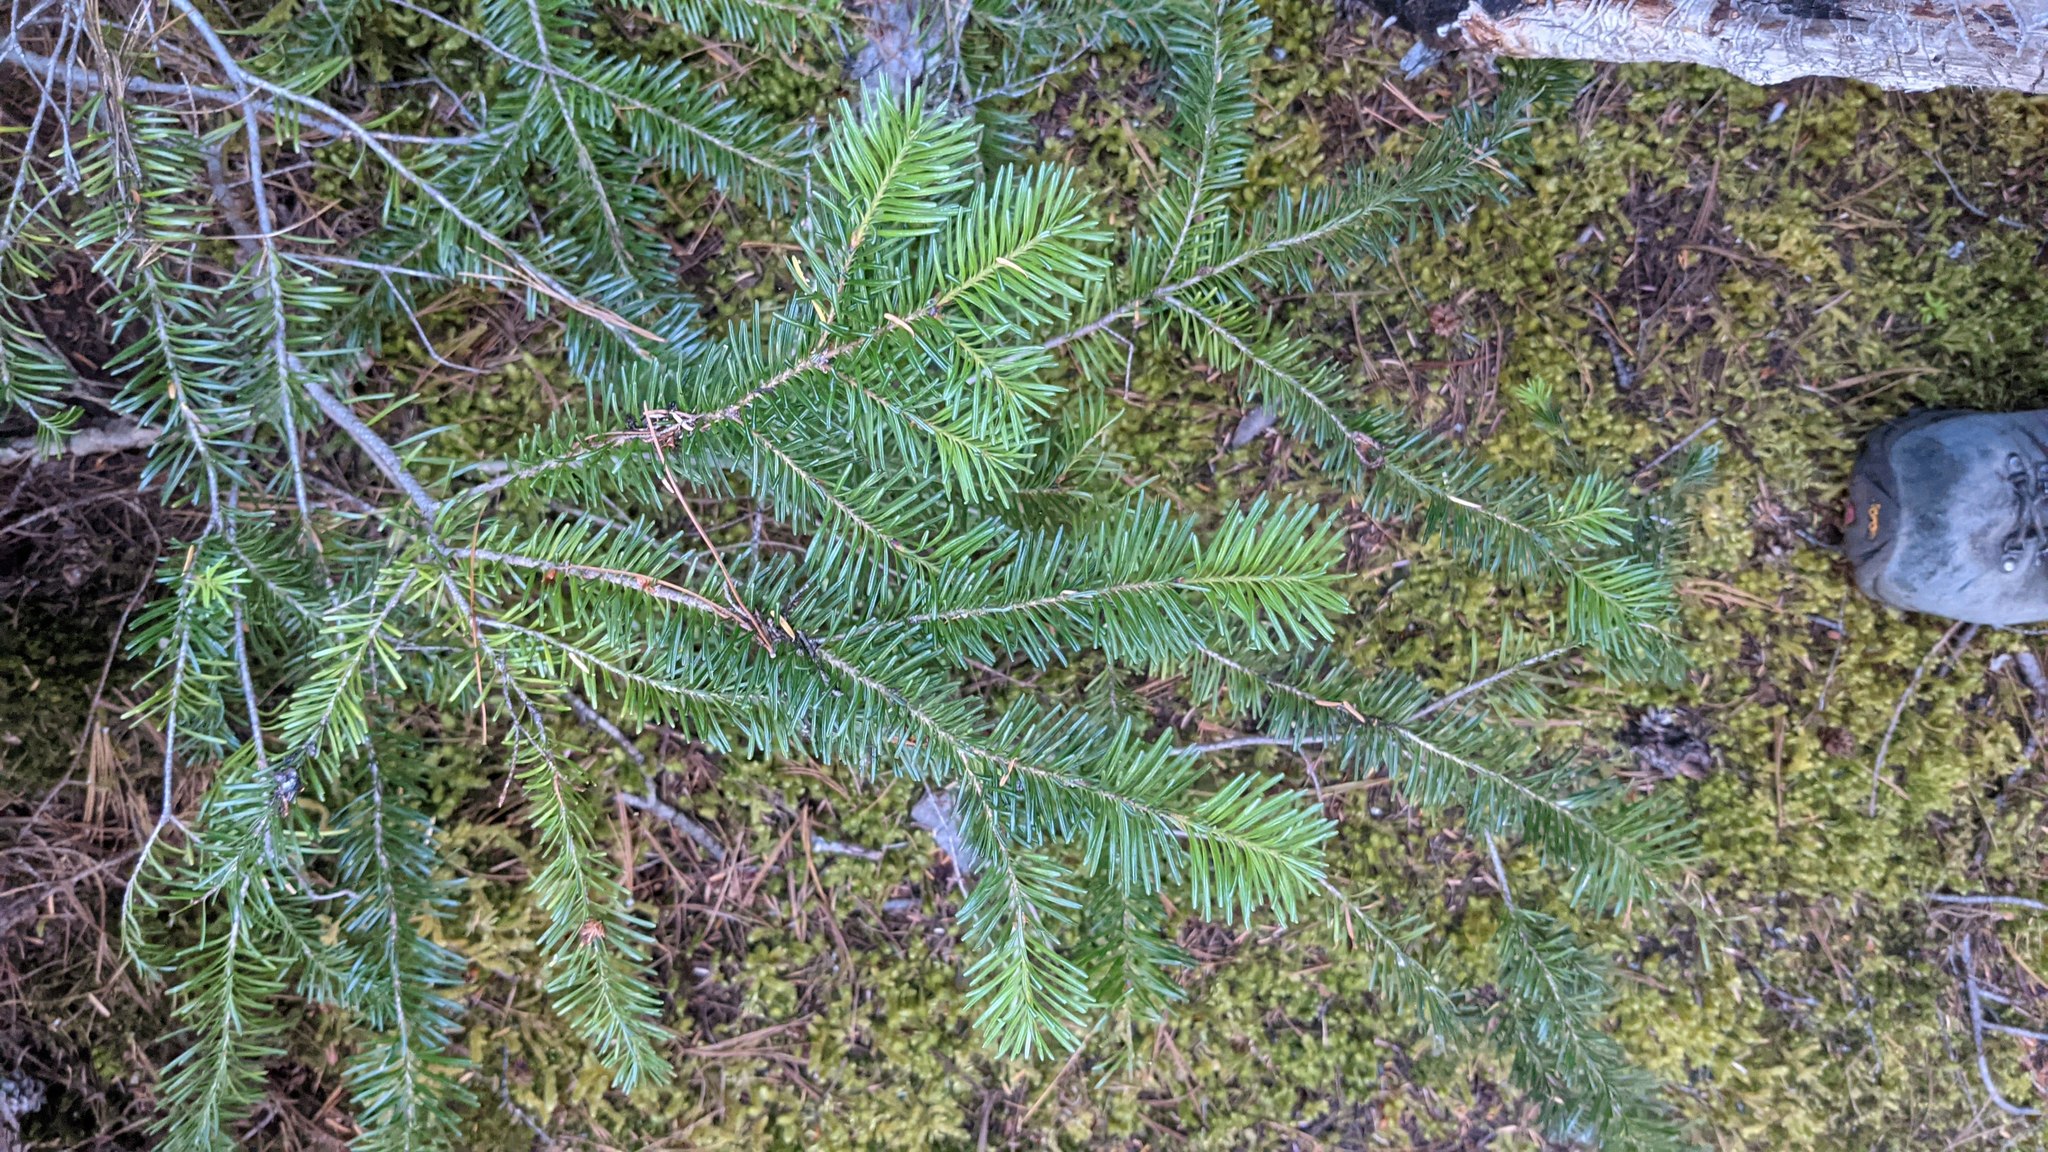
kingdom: Plantae
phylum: Tracheophyta
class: Pinopsida
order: Pinales
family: Pinaceae
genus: Abies
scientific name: Abies lasiocarpa
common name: Subalpine fir
